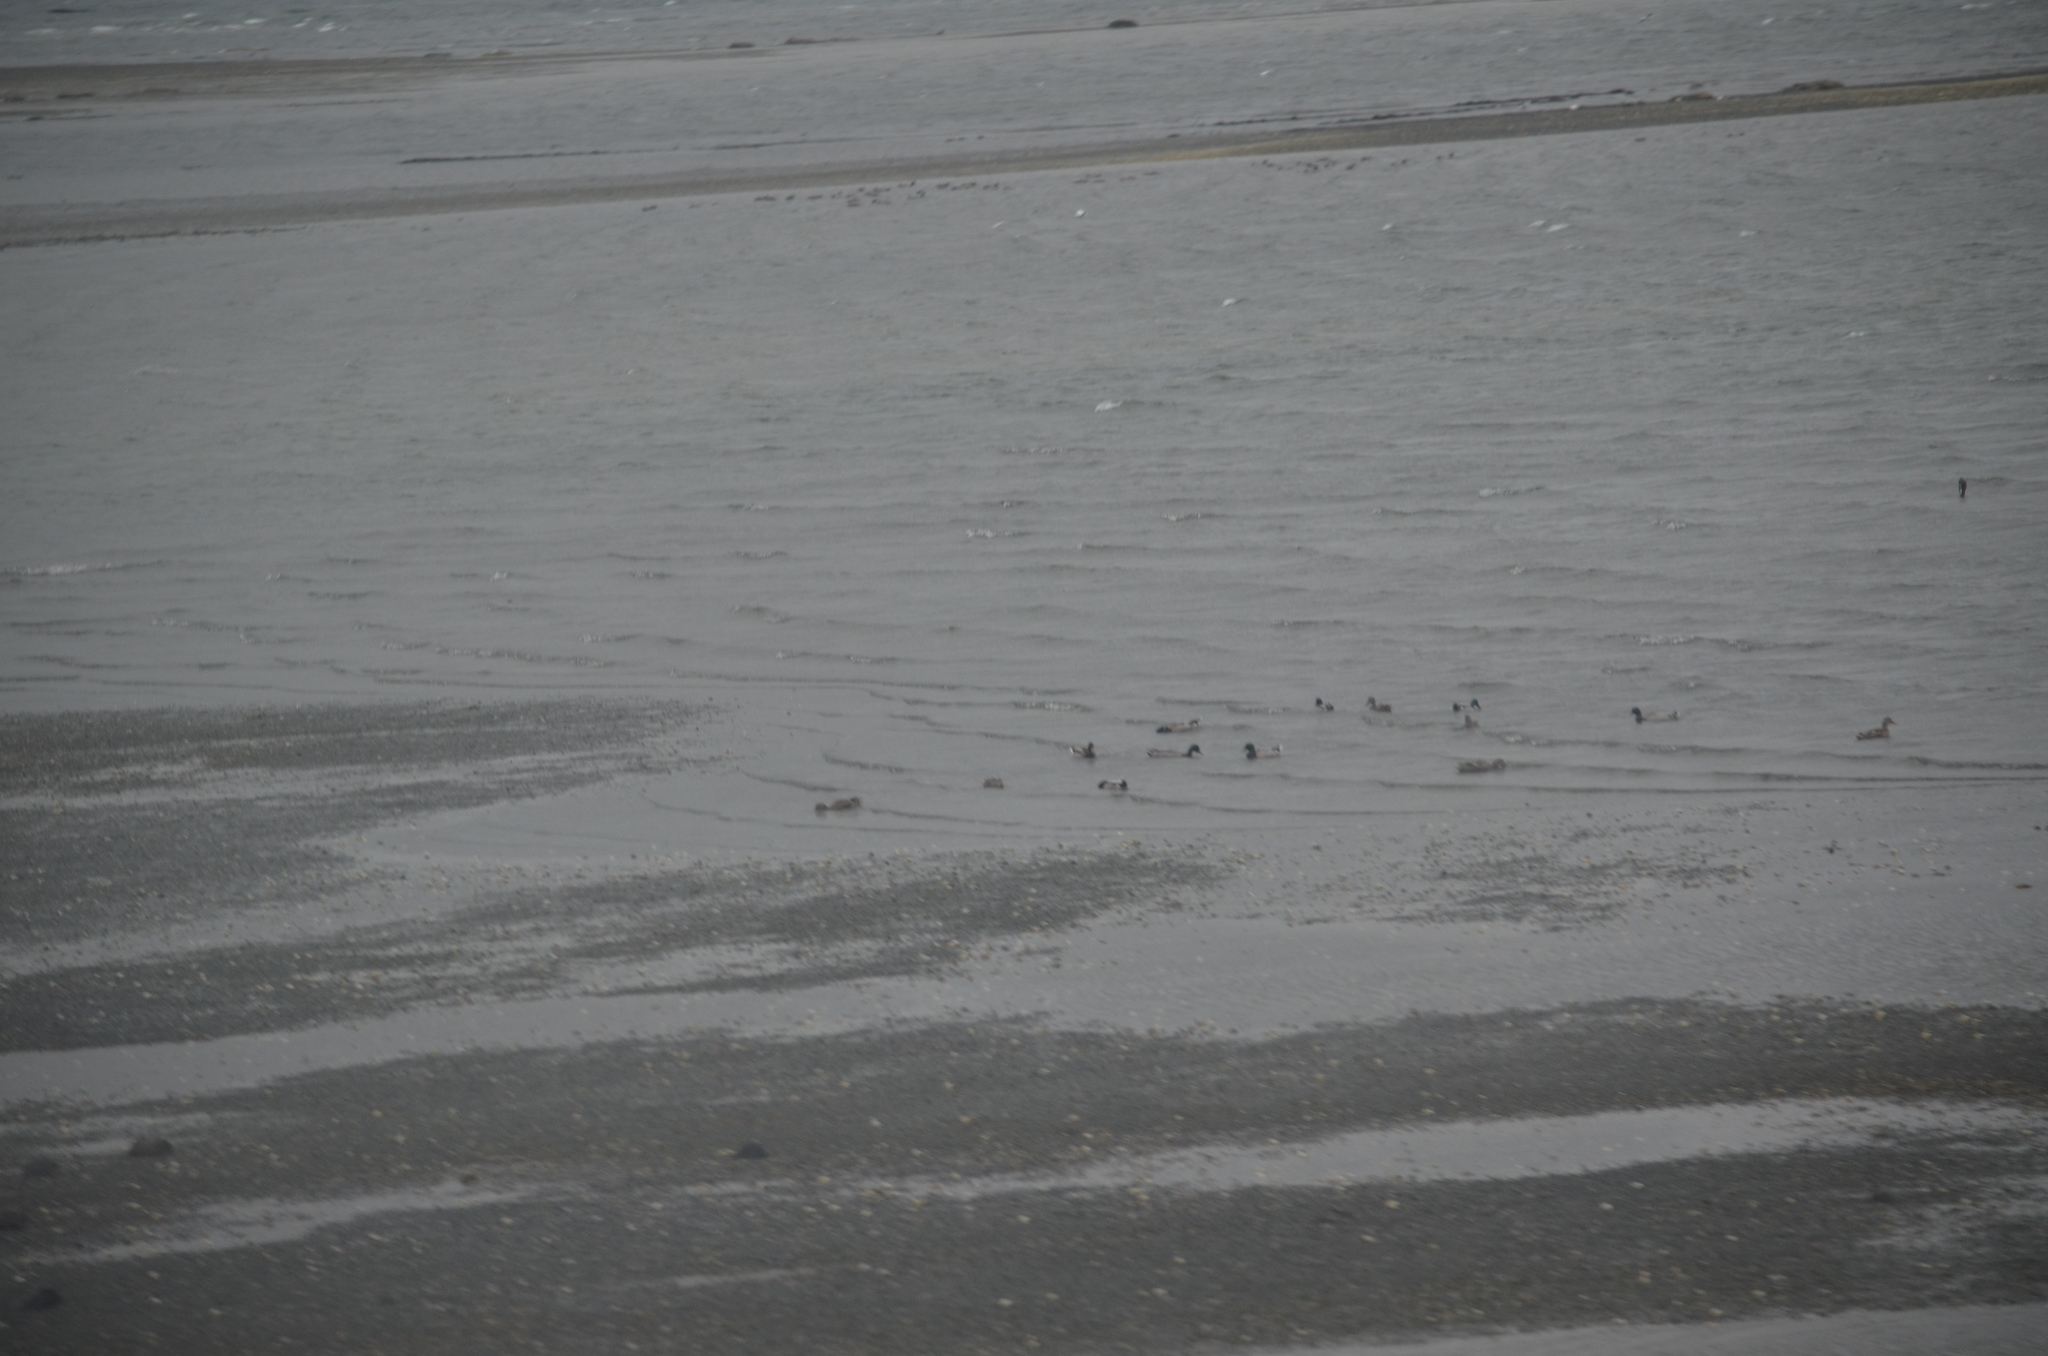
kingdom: Animalia
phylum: Chordata
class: Aves
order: Anseriformes
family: Anatidae
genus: Anas
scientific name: Anas platyrhynchos
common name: Mallard
